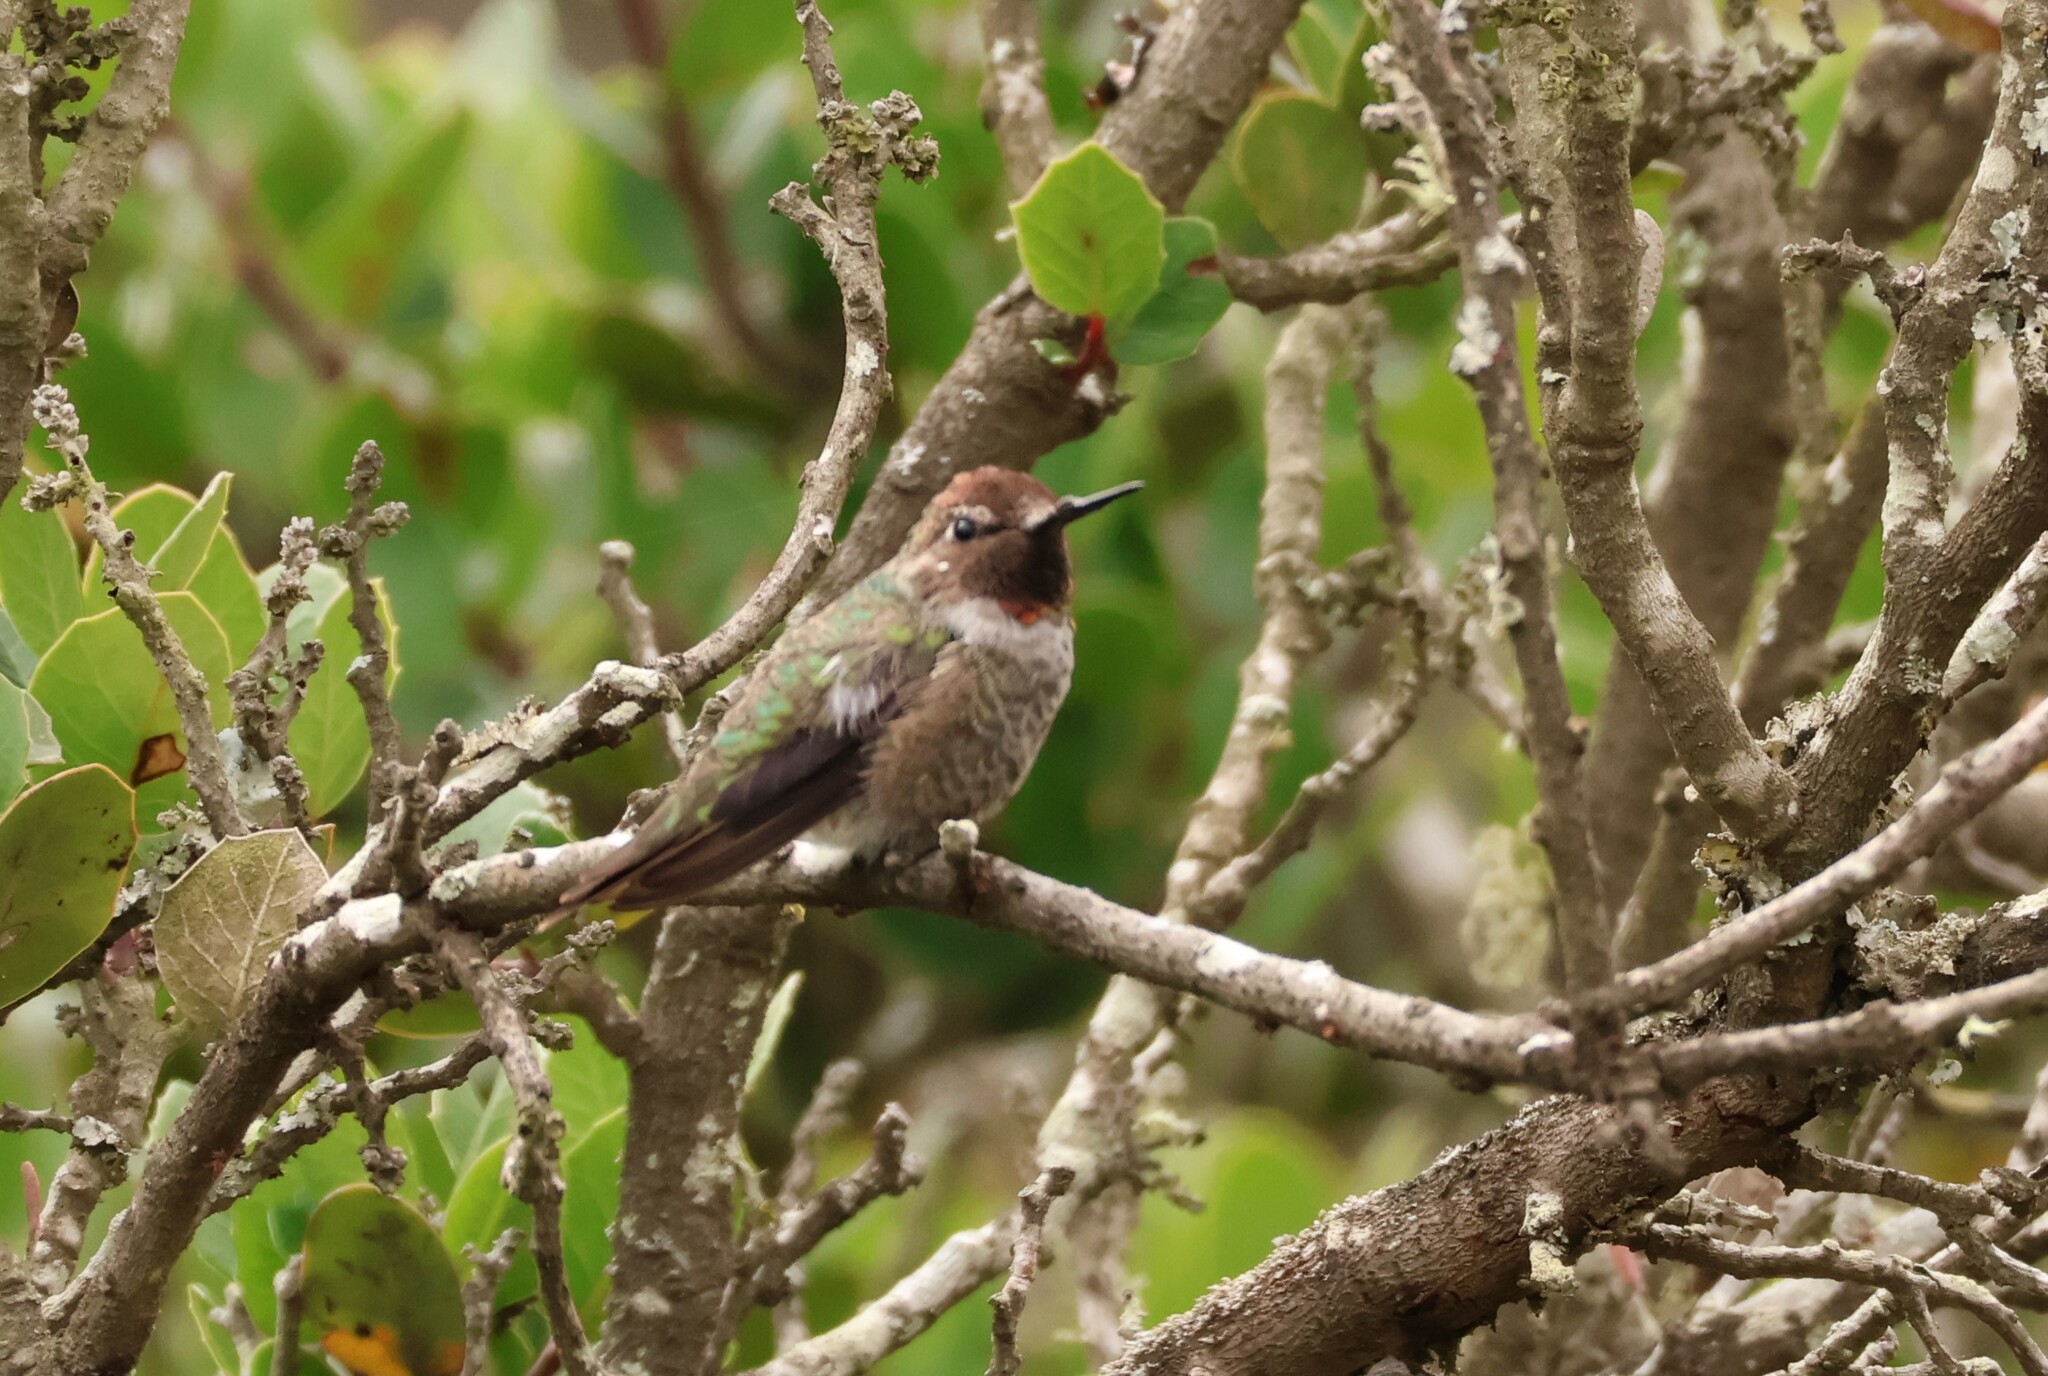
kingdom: Animalia
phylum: Chordata
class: Aves
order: Apodiformes
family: Trochilidae
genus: Calypte
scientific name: Calypte anna
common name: Anna's hummingbird
